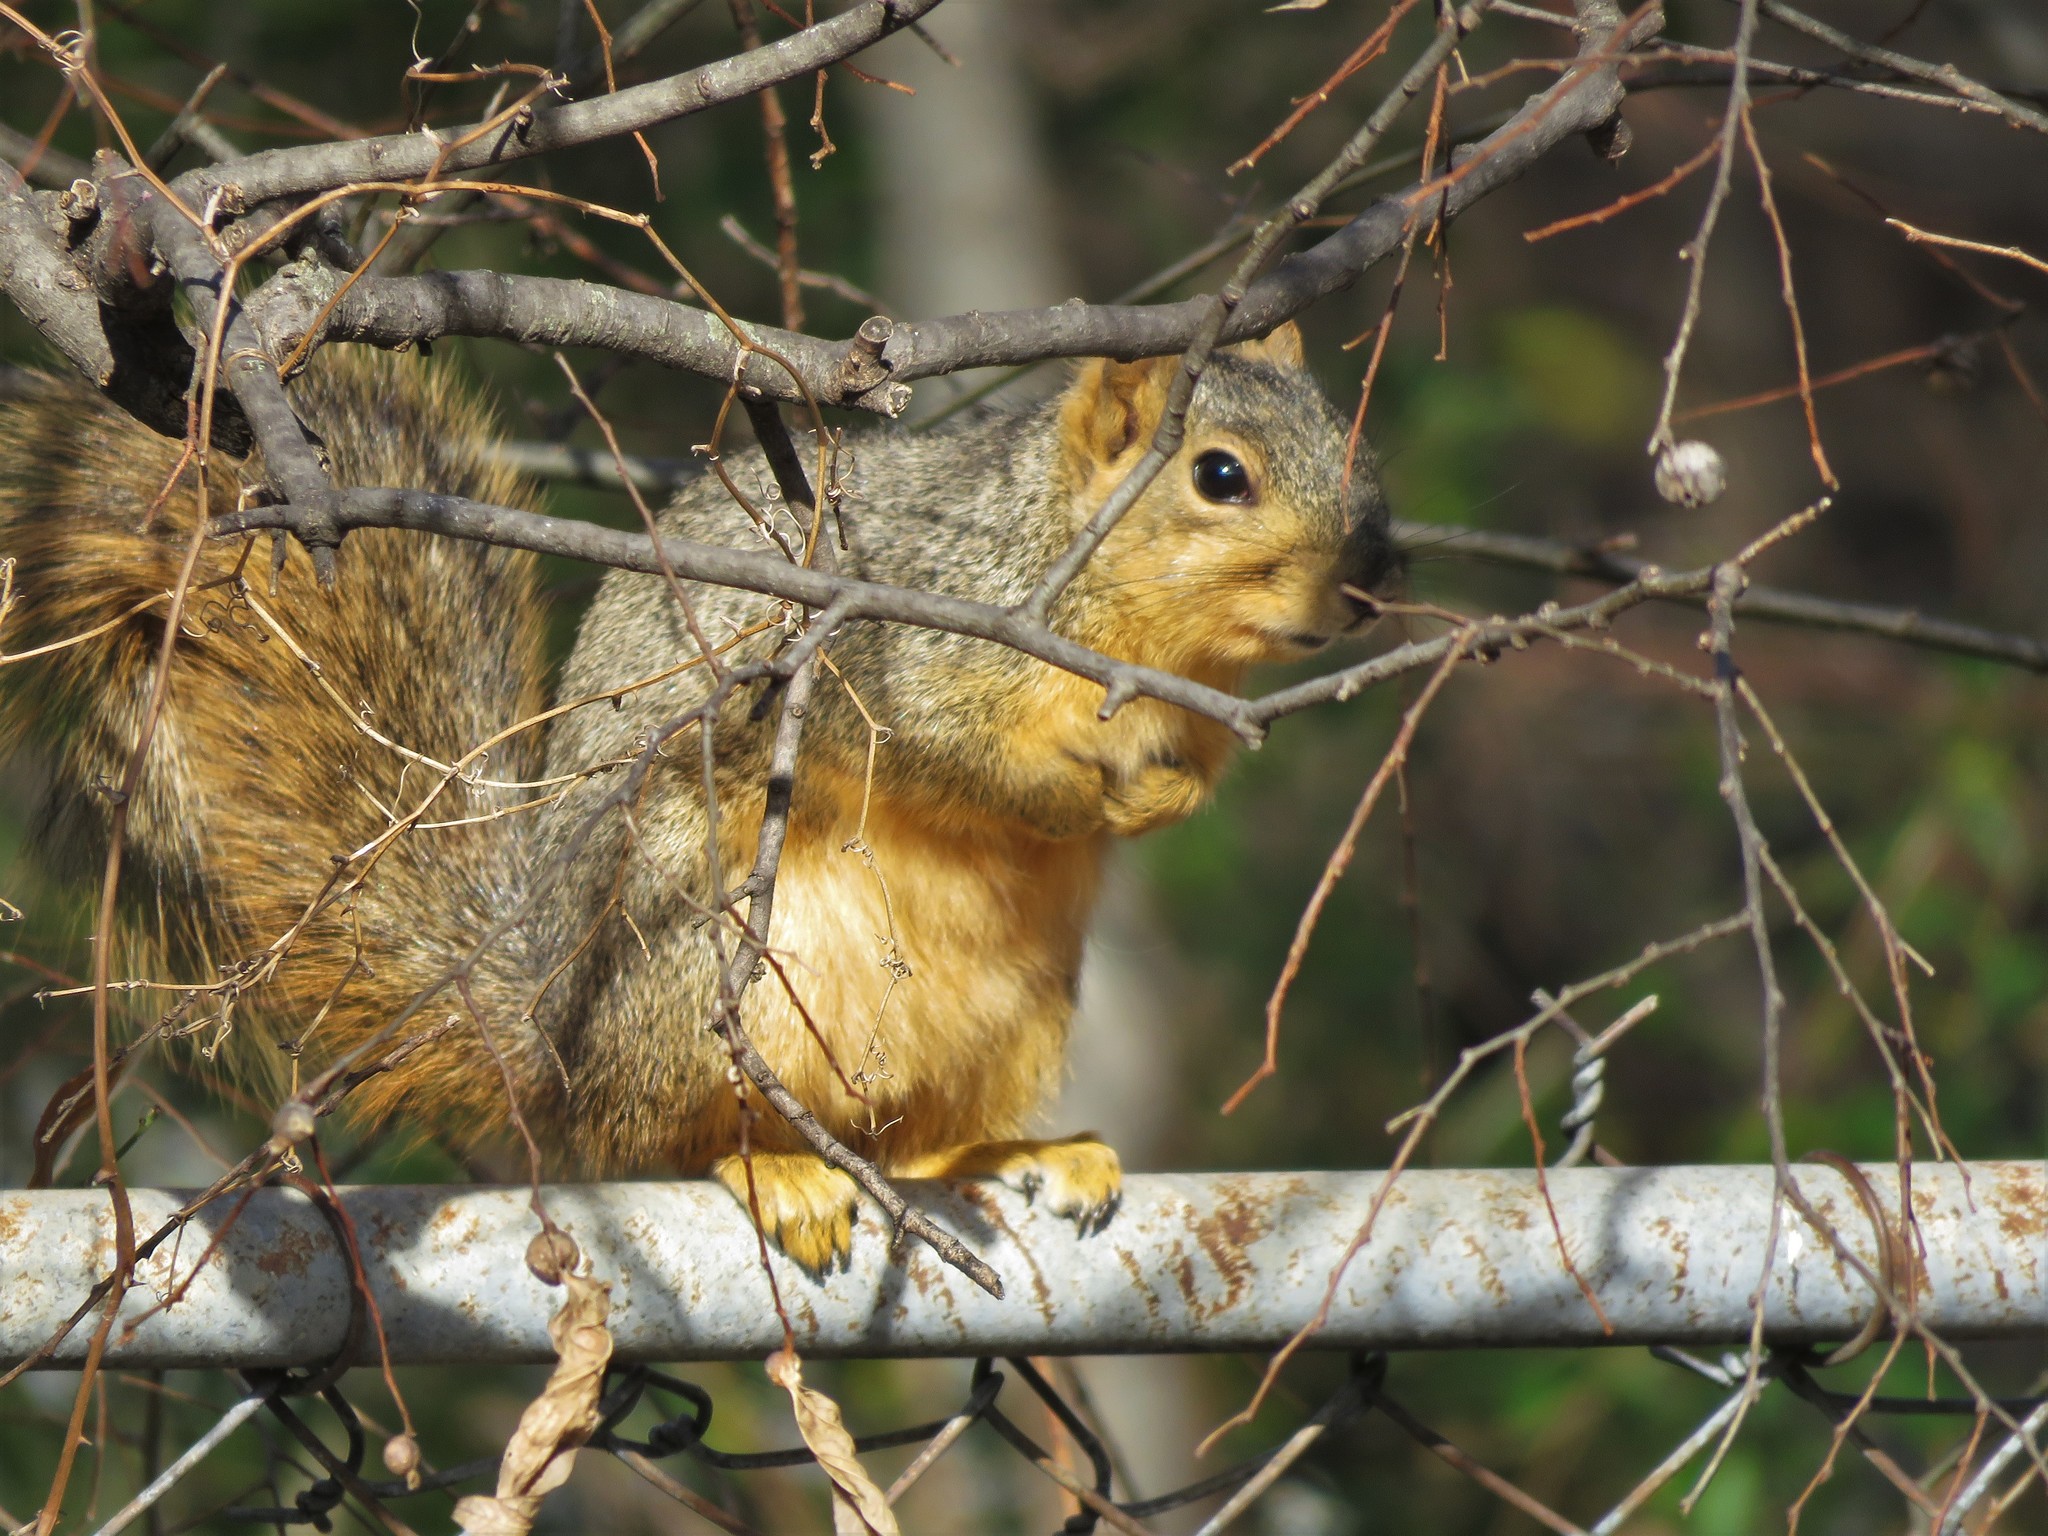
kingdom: Animalia
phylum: Chordata
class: Mammalia
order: Rodentia
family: Sciuridae
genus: Sciurus
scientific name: Sciurus niger
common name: Fox squirrel
